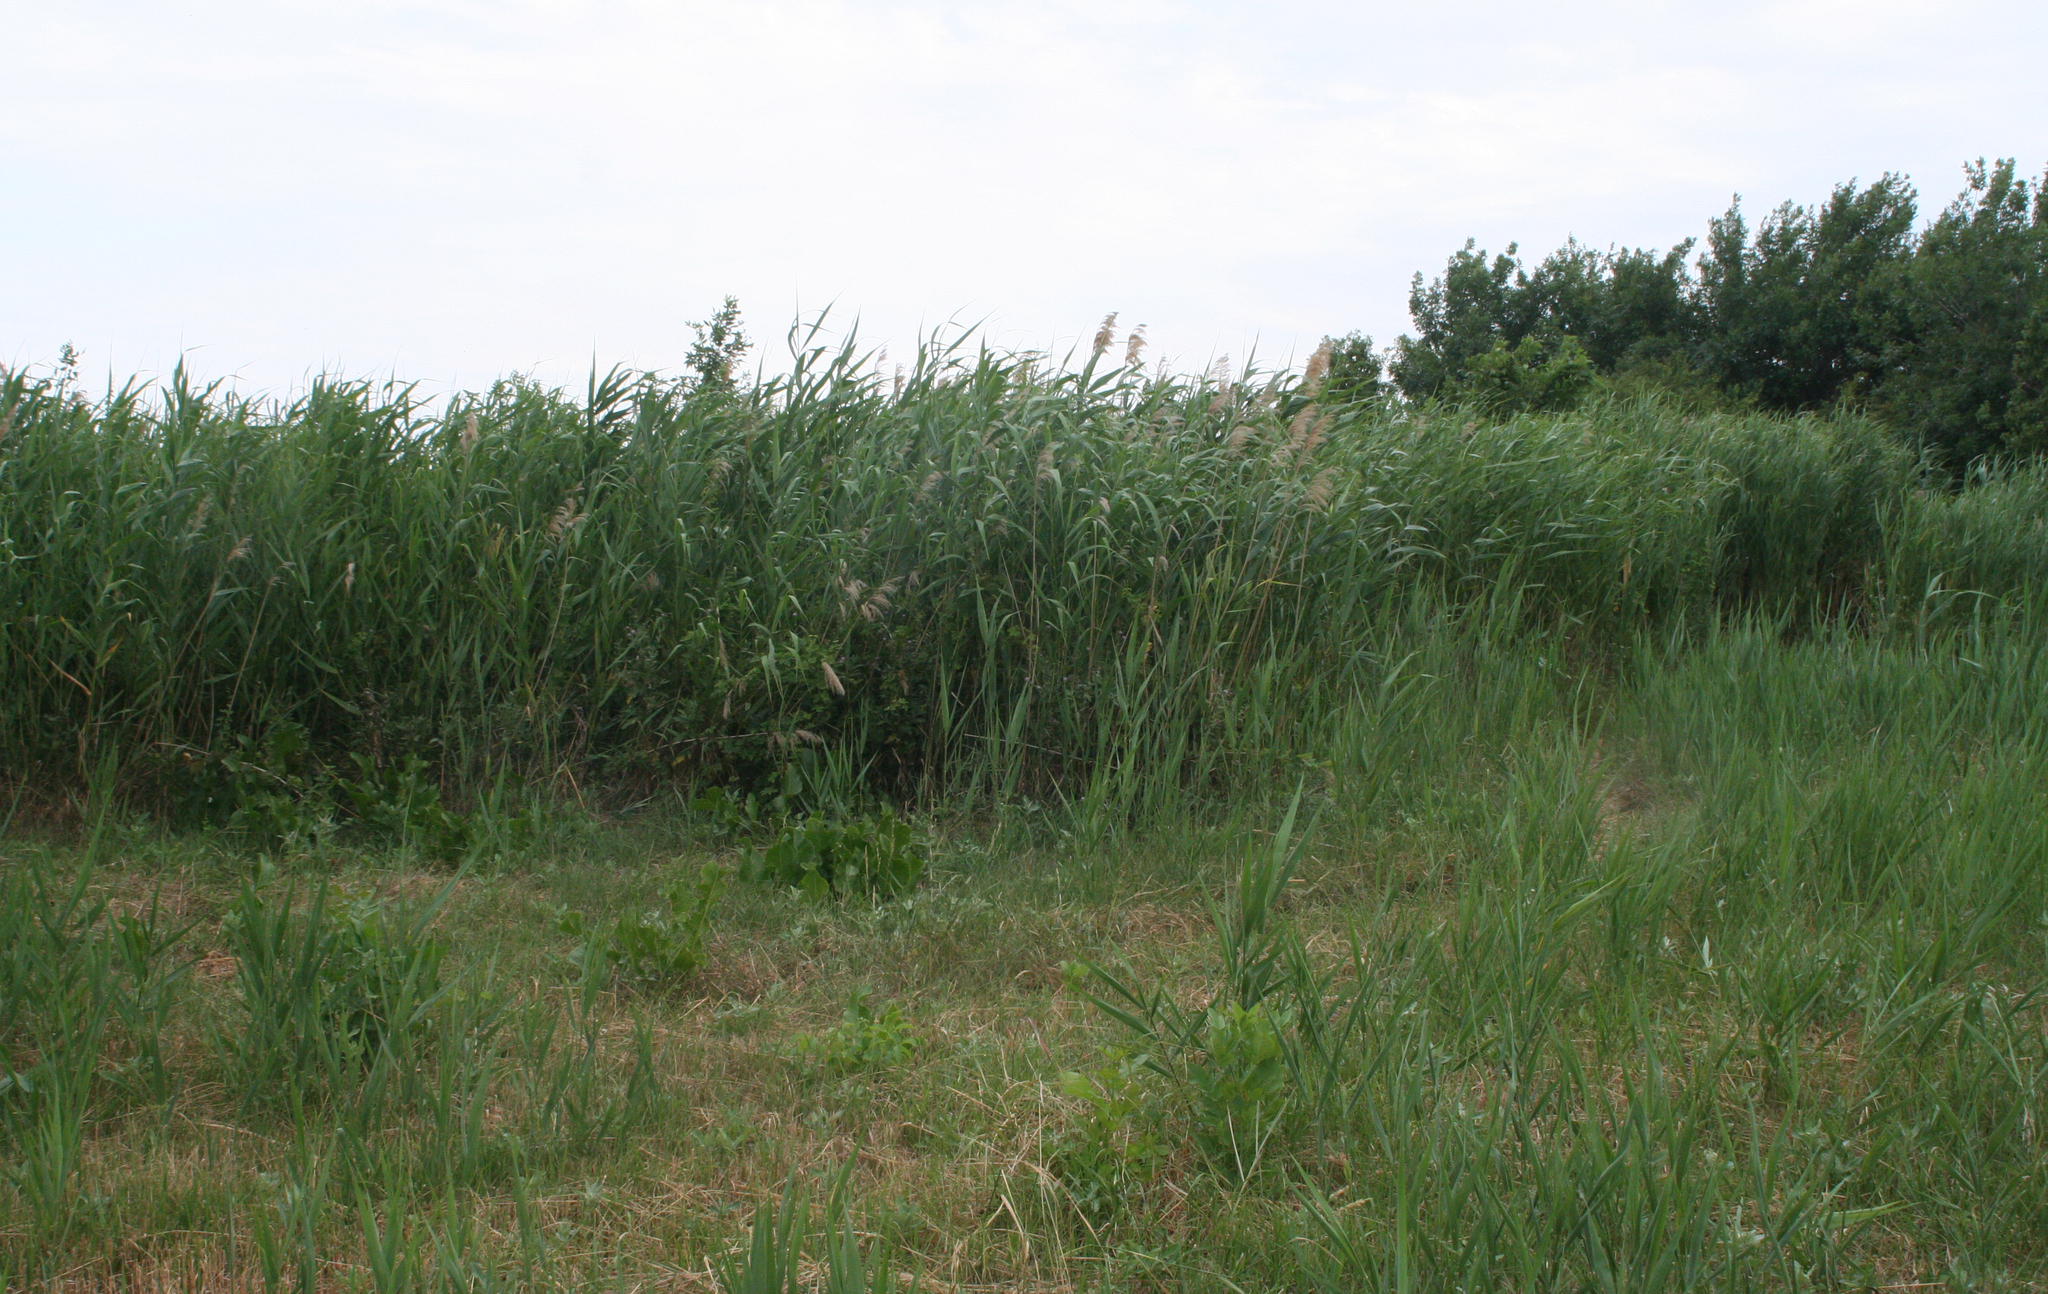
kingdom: Plantae
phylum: Tracheophyta
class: Liliopsida
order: Poales
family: Poaceae
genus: Phragmites
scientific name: Phragmites australis
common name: Common reed
